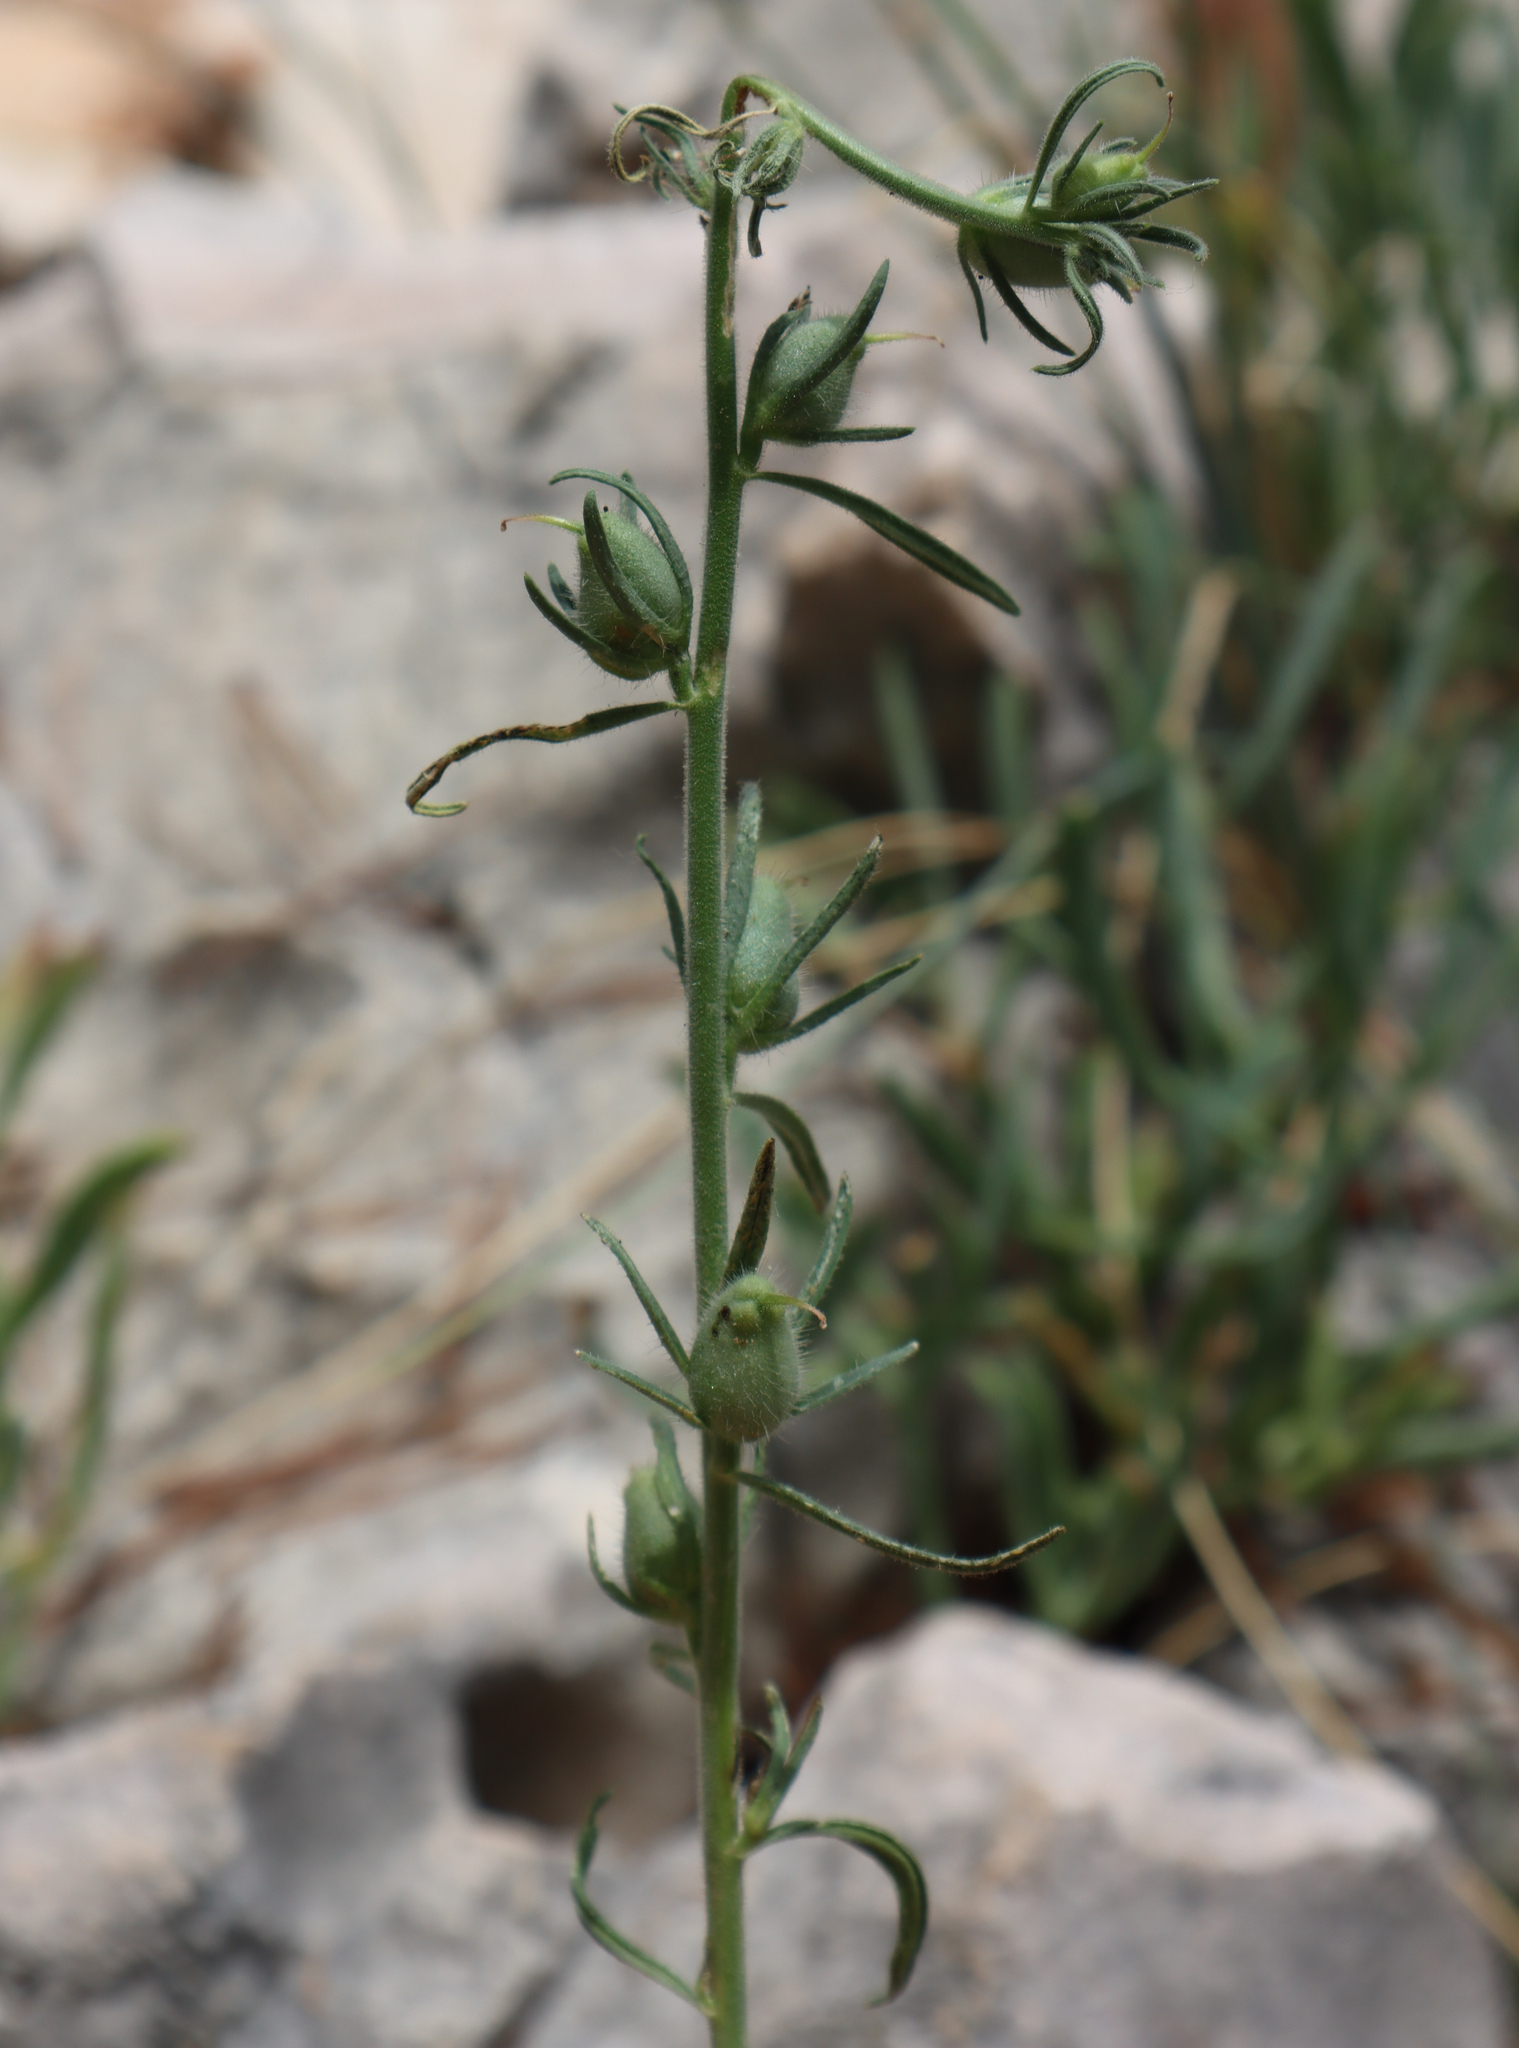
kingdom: Plantae
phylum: Tracheophyta
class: Magnoliopsida
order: Lamiales
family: Plantaginaceae
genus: Misopates
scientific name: Misopates orontium
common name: Weasel's-snout
